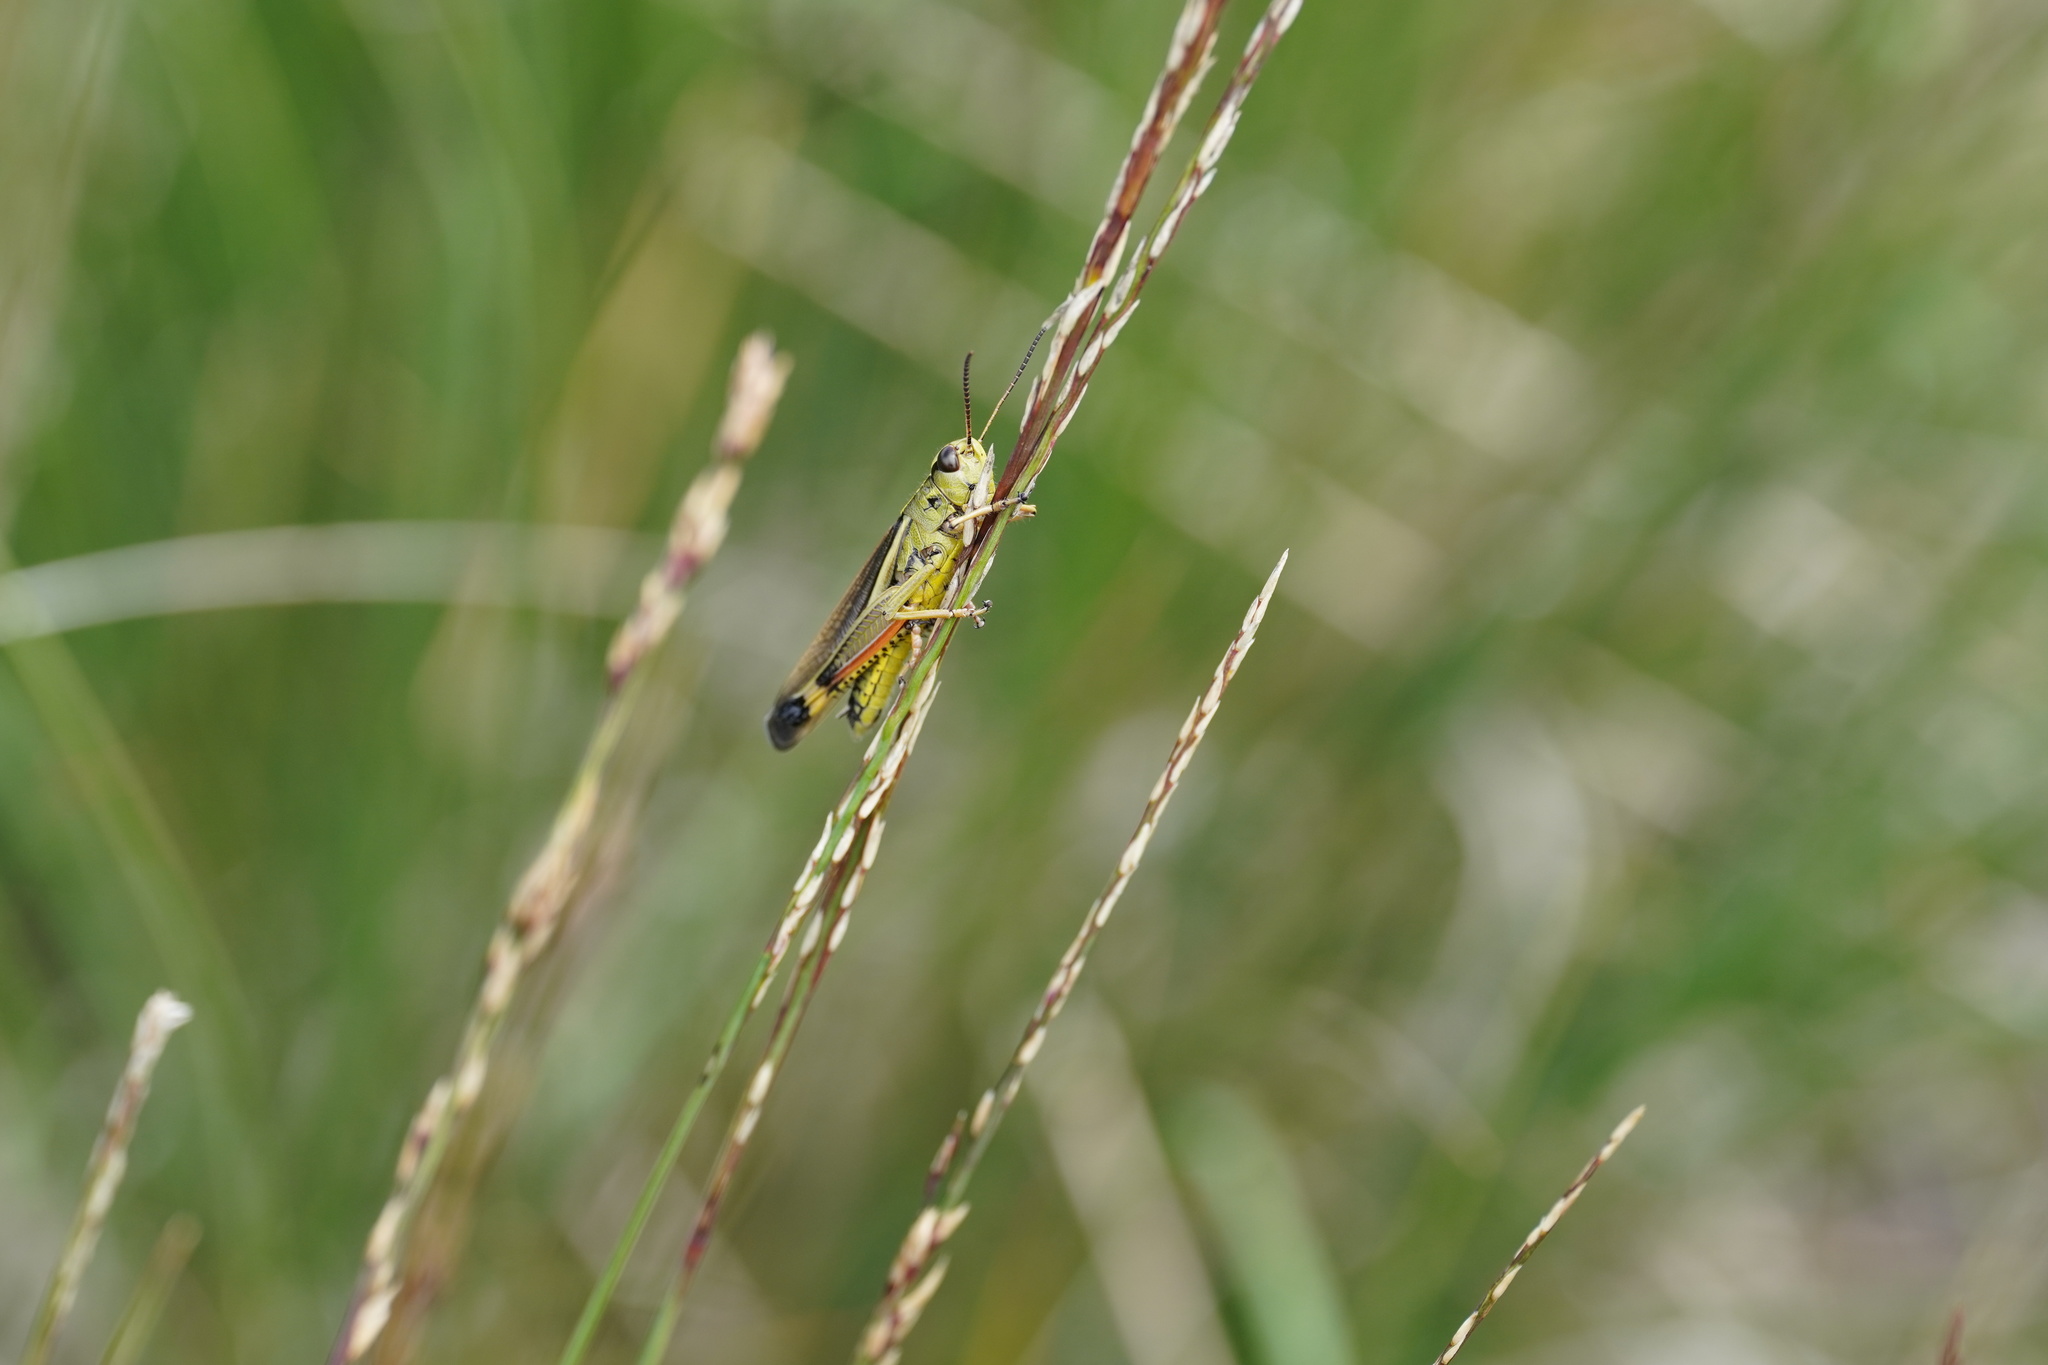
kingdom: Animalia
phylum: Arthropoda
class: Insecta
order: Orthoptera
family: Acrididae
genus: Stethophyma
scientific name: Stethophyma grossum
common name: Large marsh grasshopper
